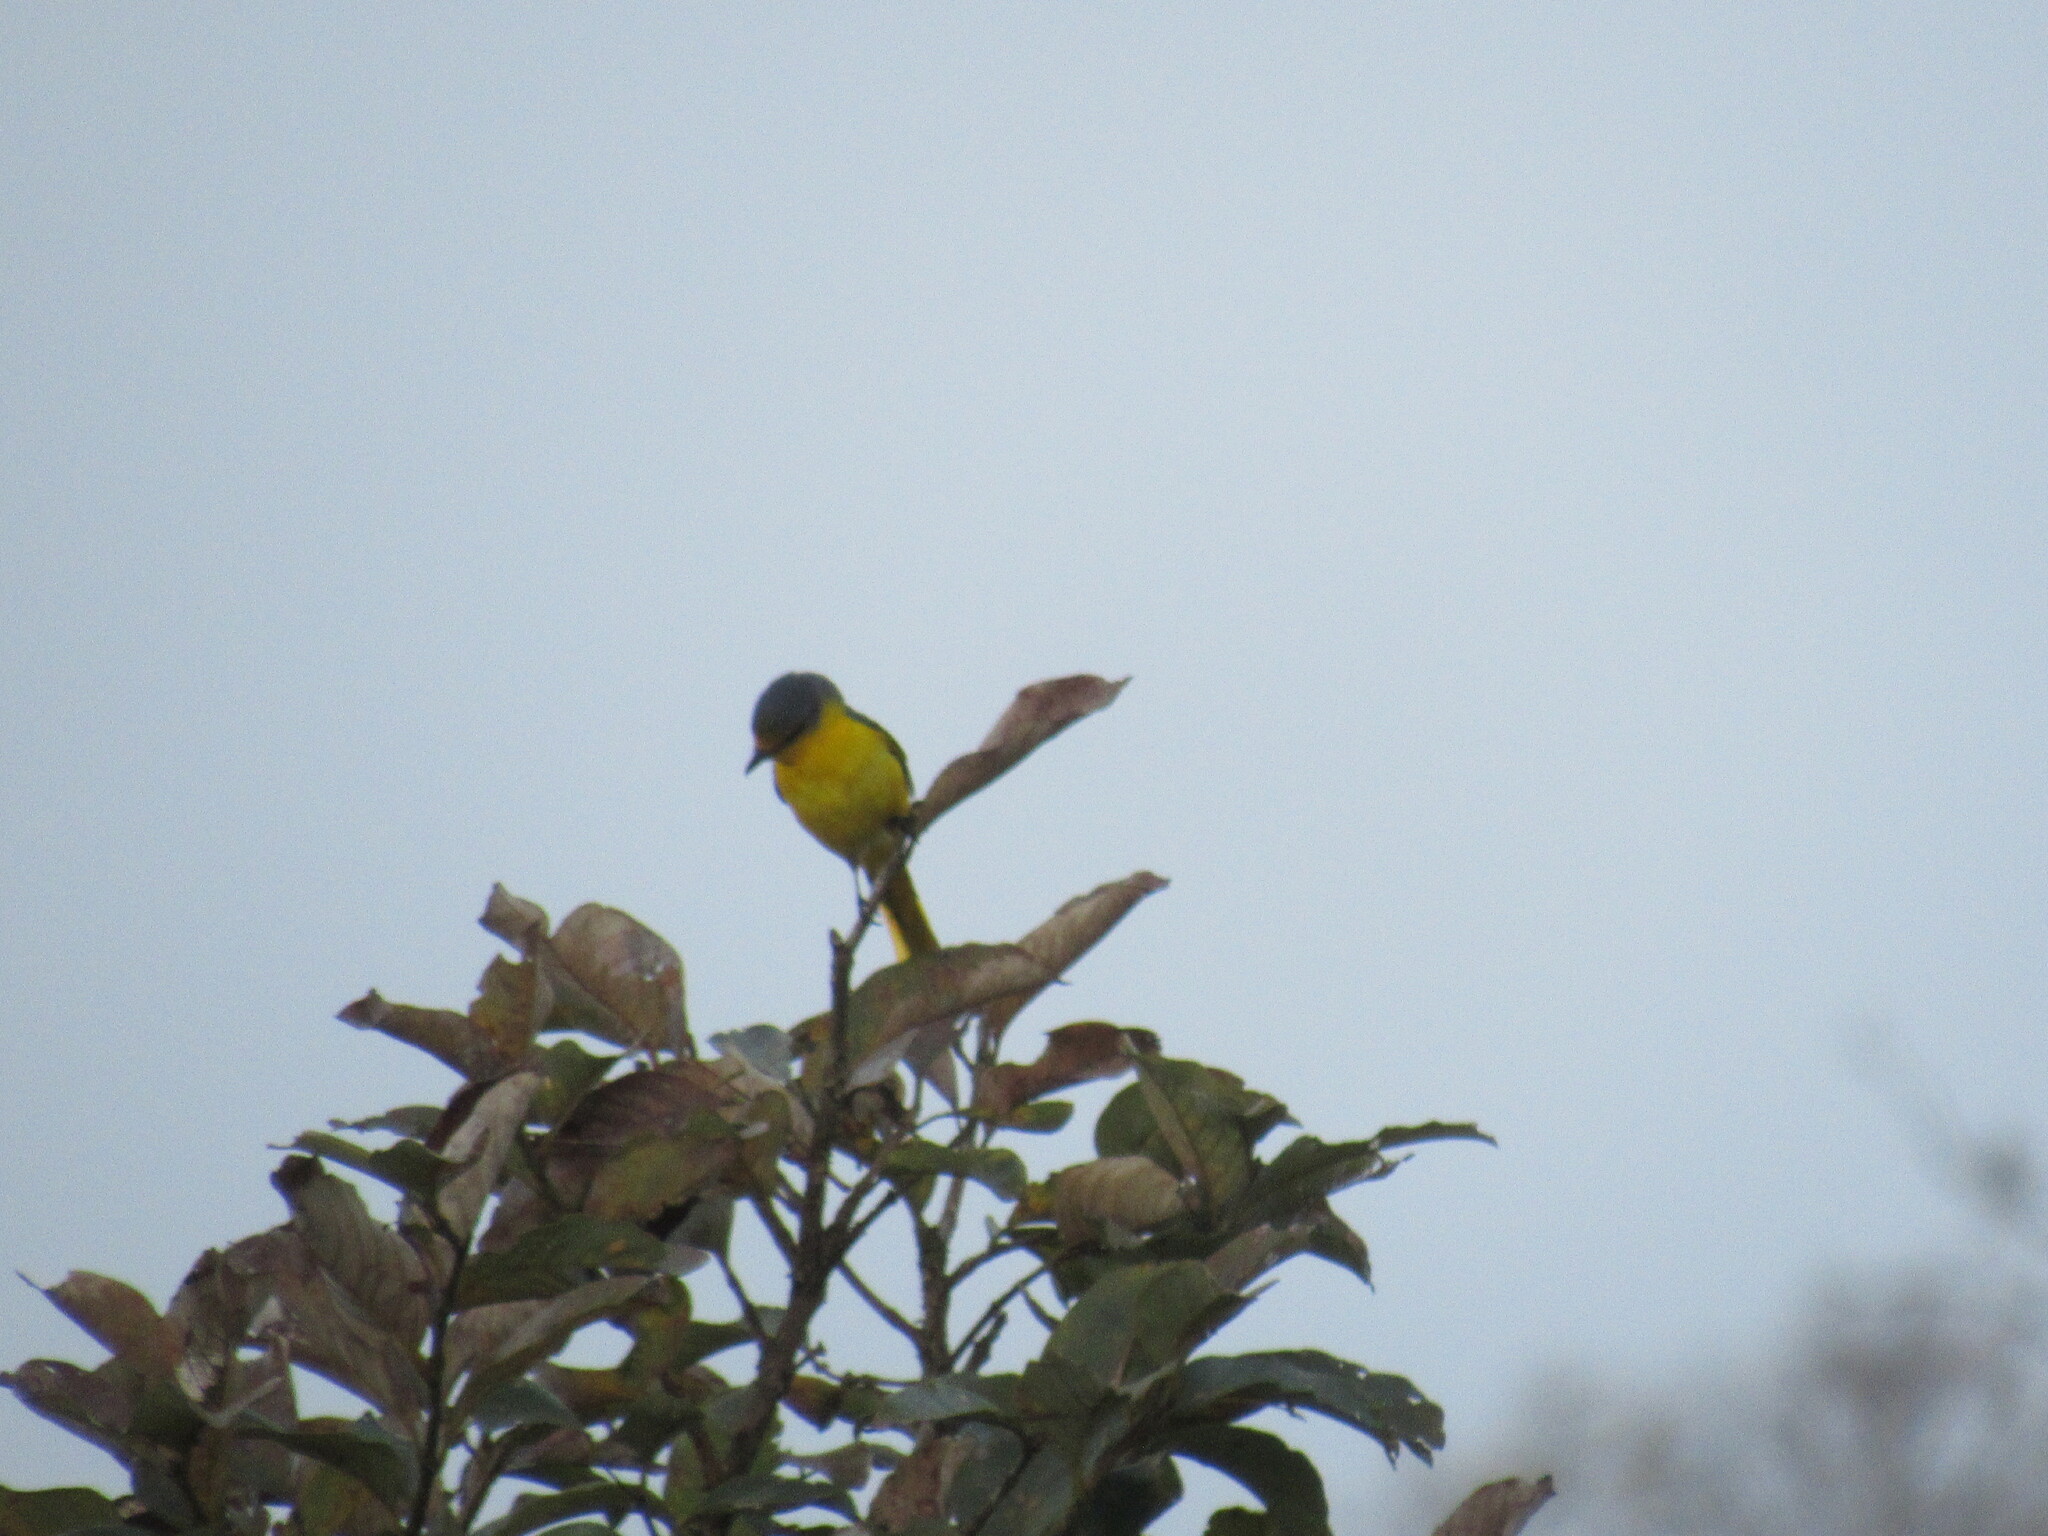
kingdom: Animalia
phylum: Chordata
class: Aves
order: Passeriformes
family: Campephagidae
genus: Pericrocotus
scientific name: Pericrocotus flammeus
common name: Orange minivet
